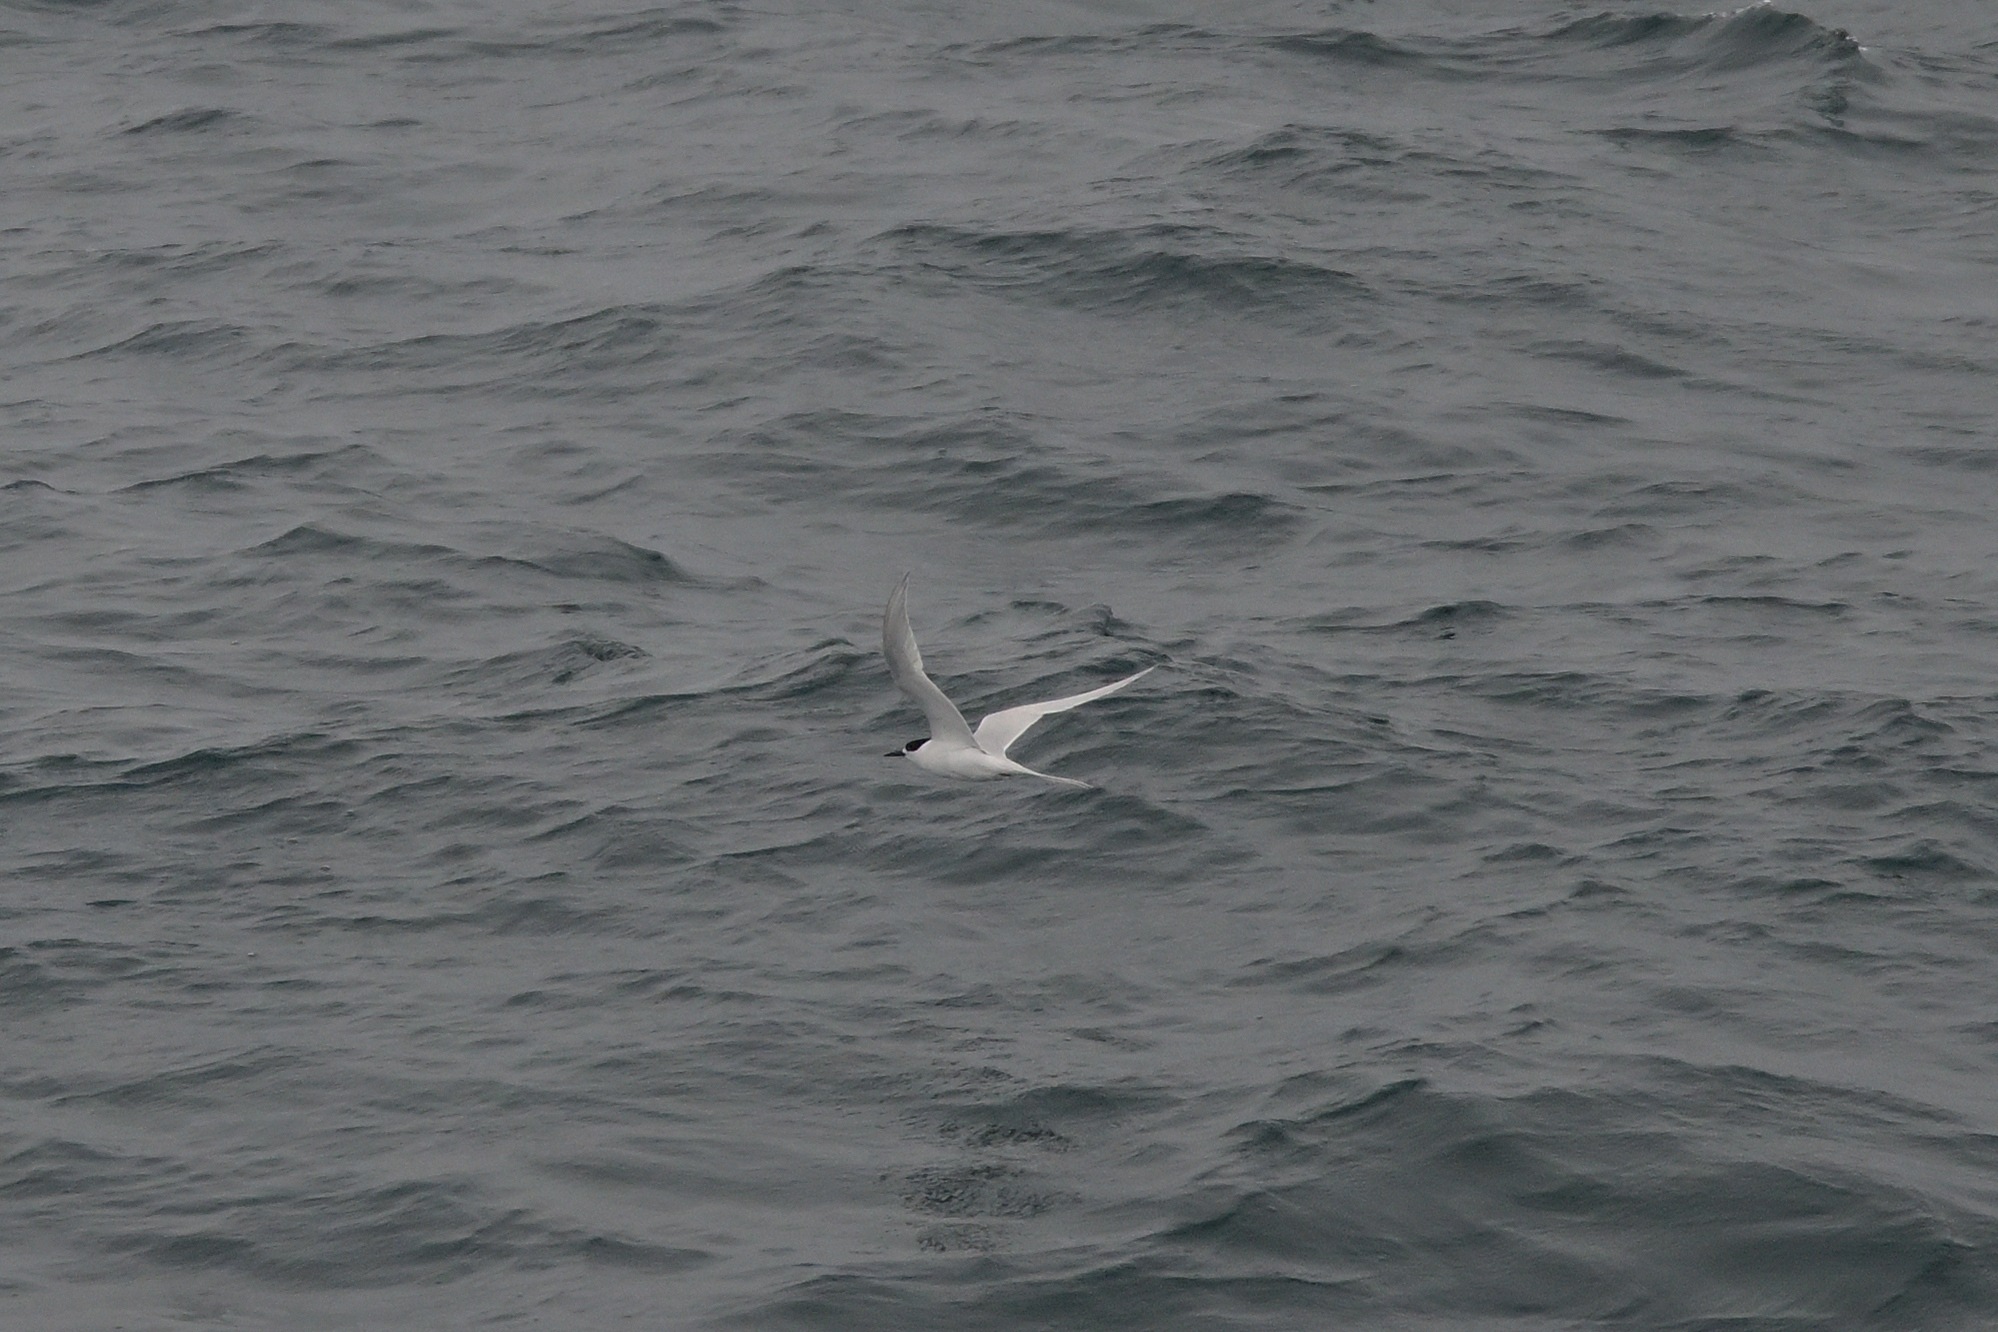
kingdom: Animalia
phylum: Chordata
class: Aves
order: Charadriiformes
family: Laridae
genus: Sterna
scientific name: Sterna striata
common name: White-fronted tern
